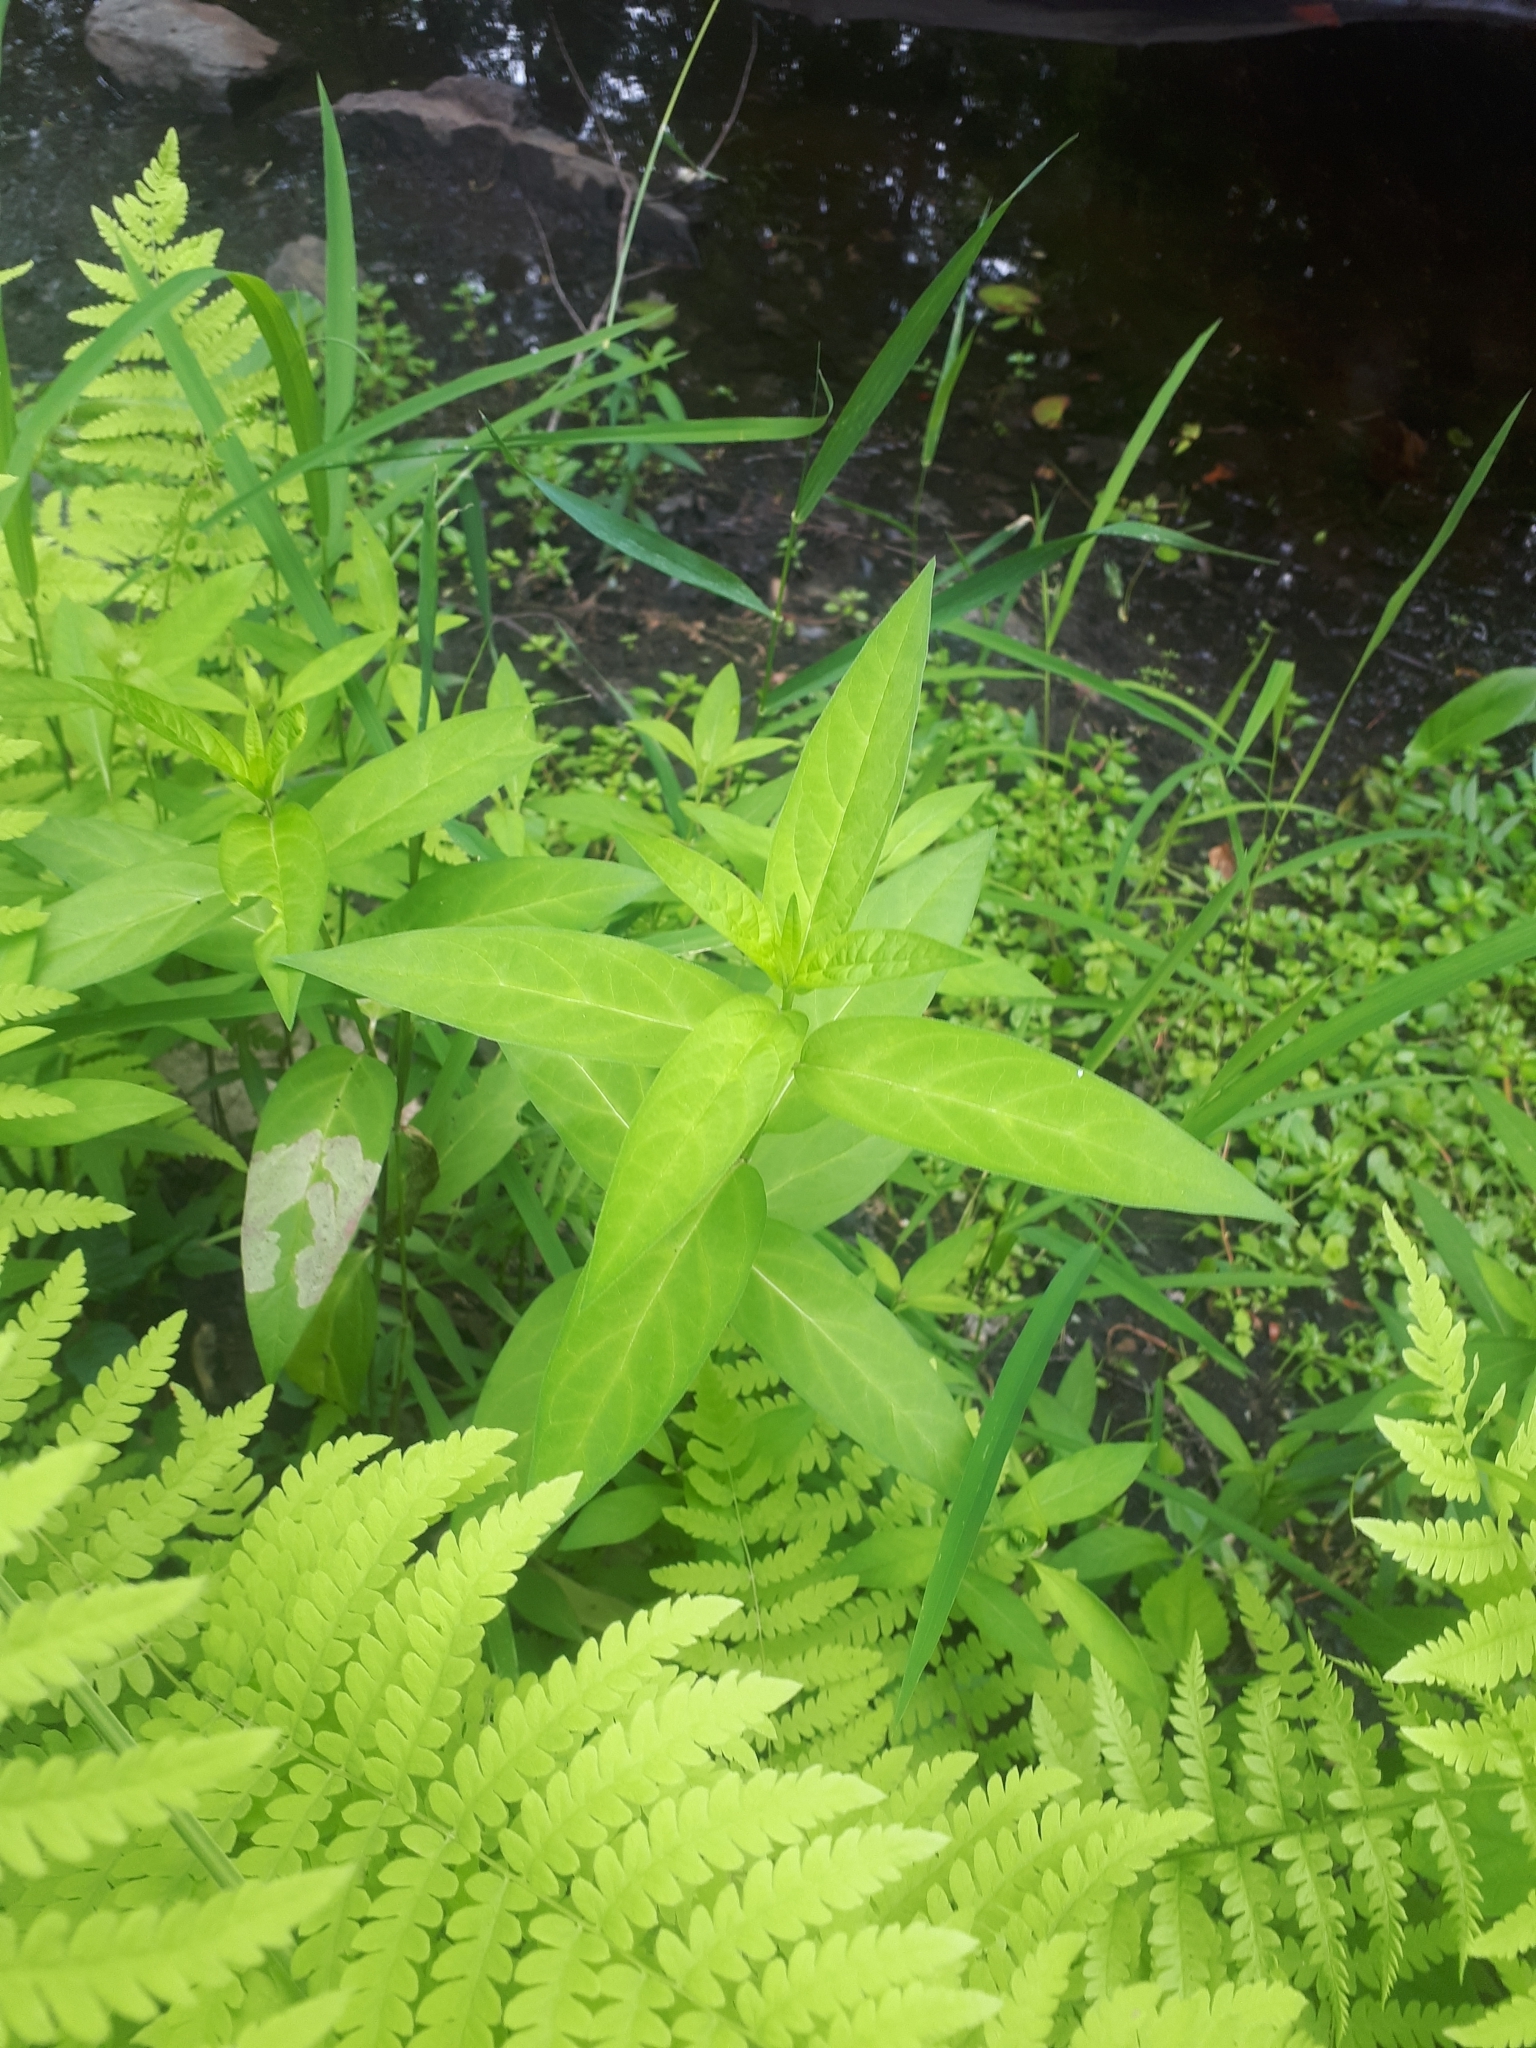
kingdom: Plantae
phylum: Tracheophyta
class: Magnoliopsida
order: Gentianales
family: Apocynaceae
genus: Asclepias
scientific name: Asclepias incarnata
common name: Swamp milkweed
